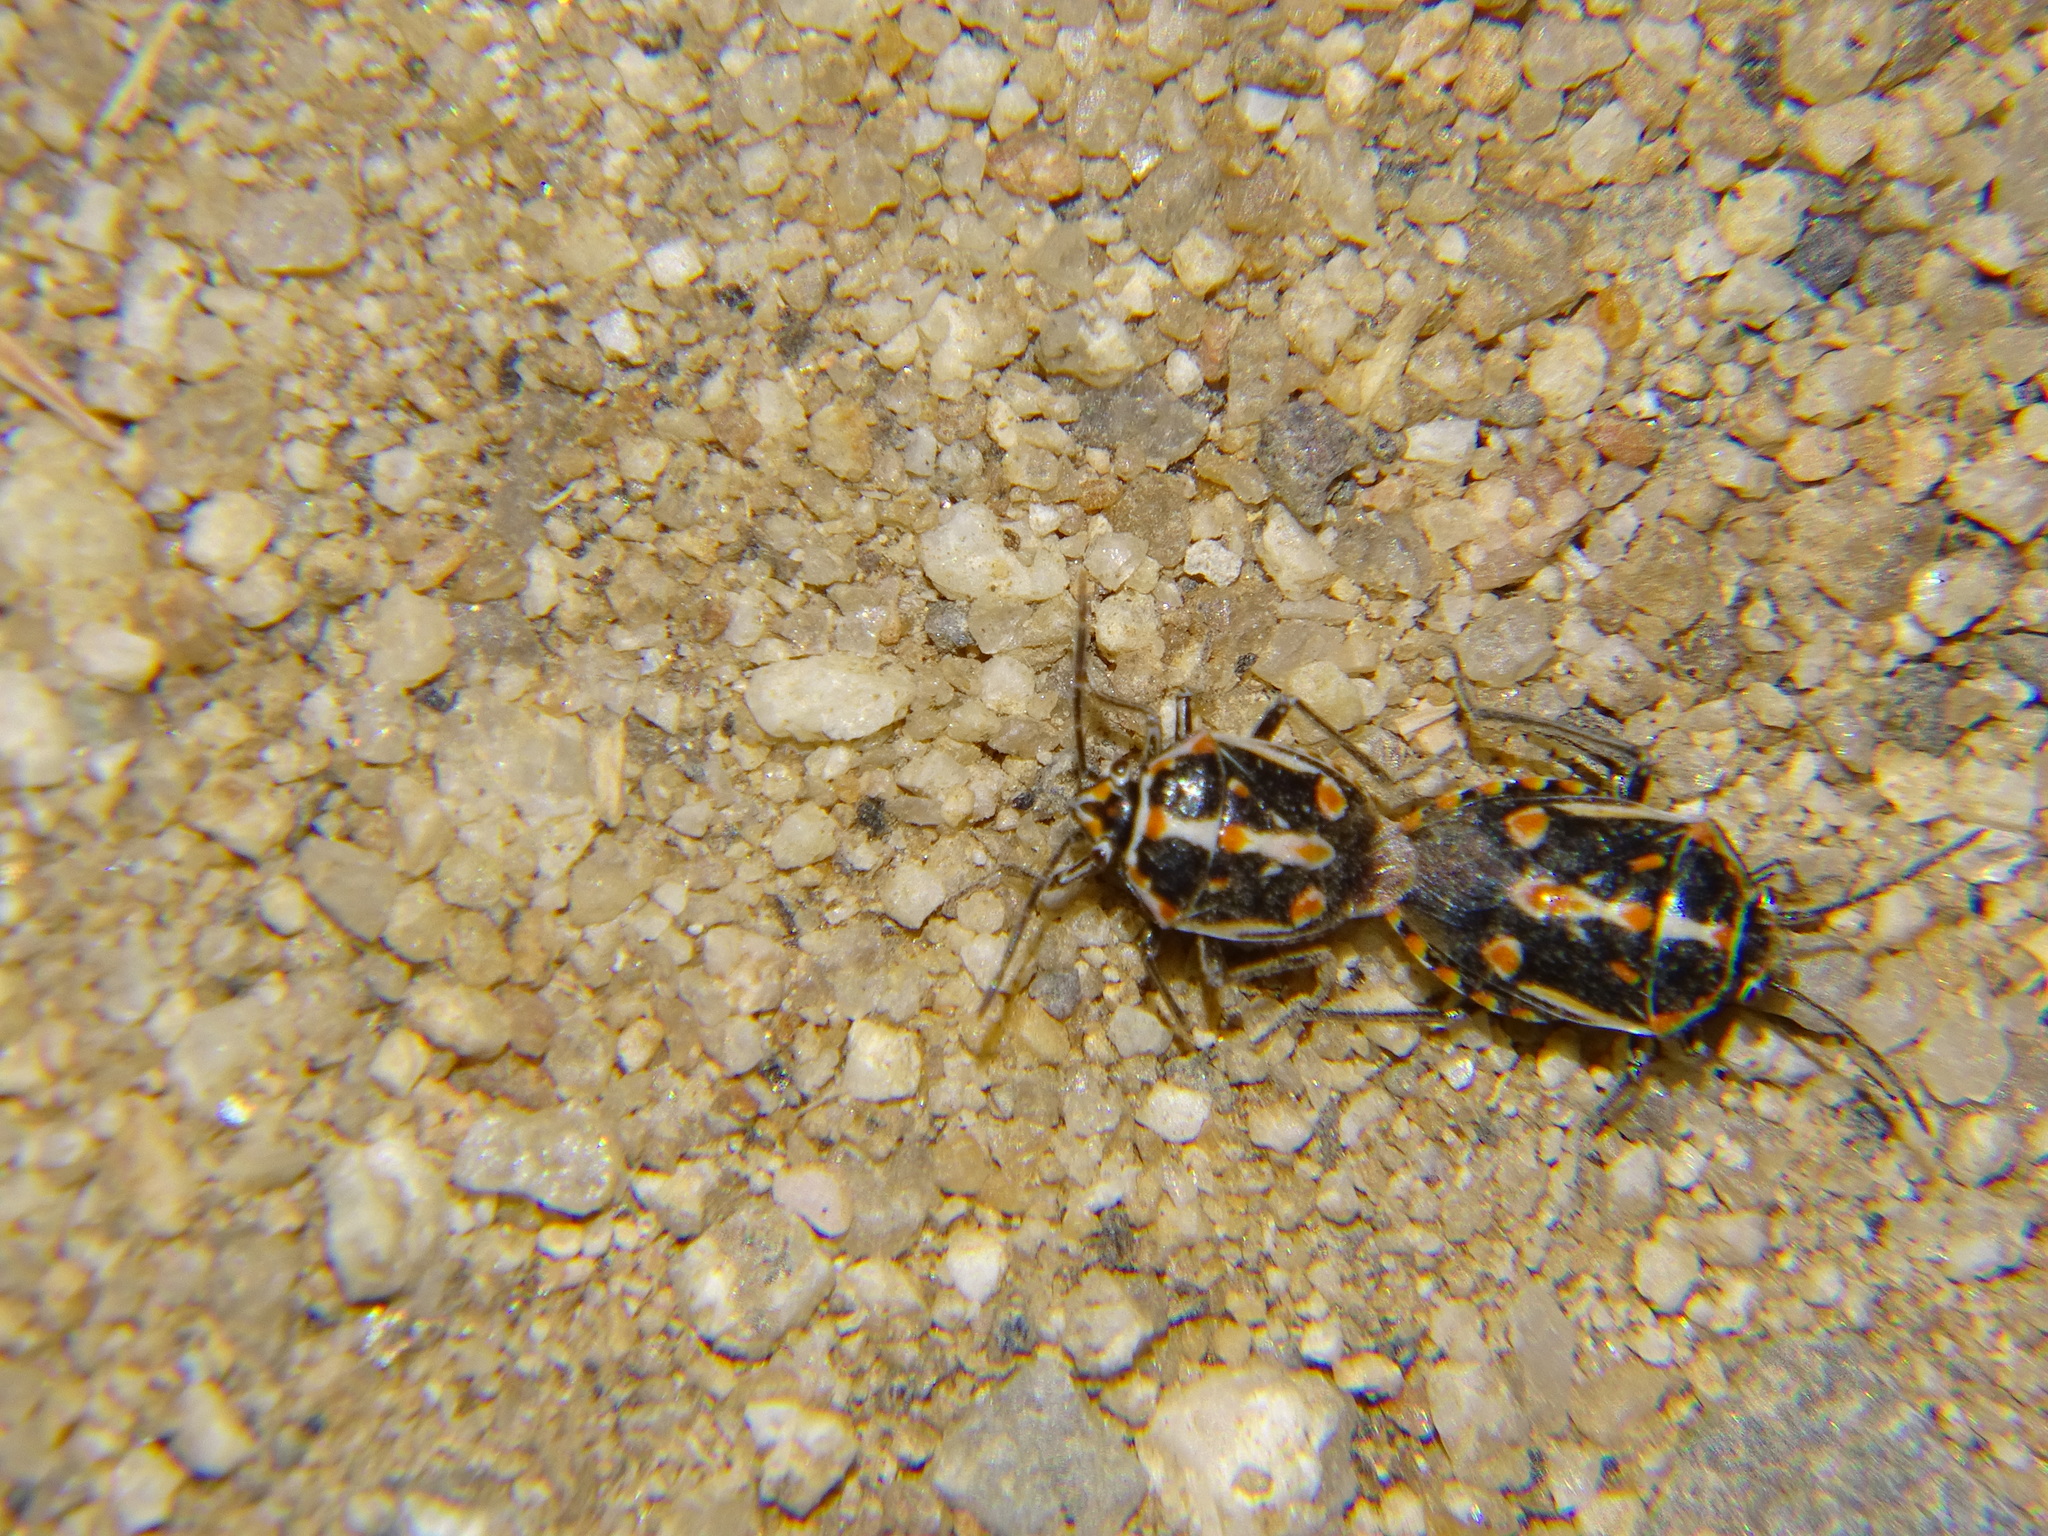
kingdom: Animalia
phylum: Arthropoda
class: Insecta
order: Hemiptera
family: Pentatomidae
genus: Bagrada
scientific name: Bagrada hilaris
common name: Bagrada bug
